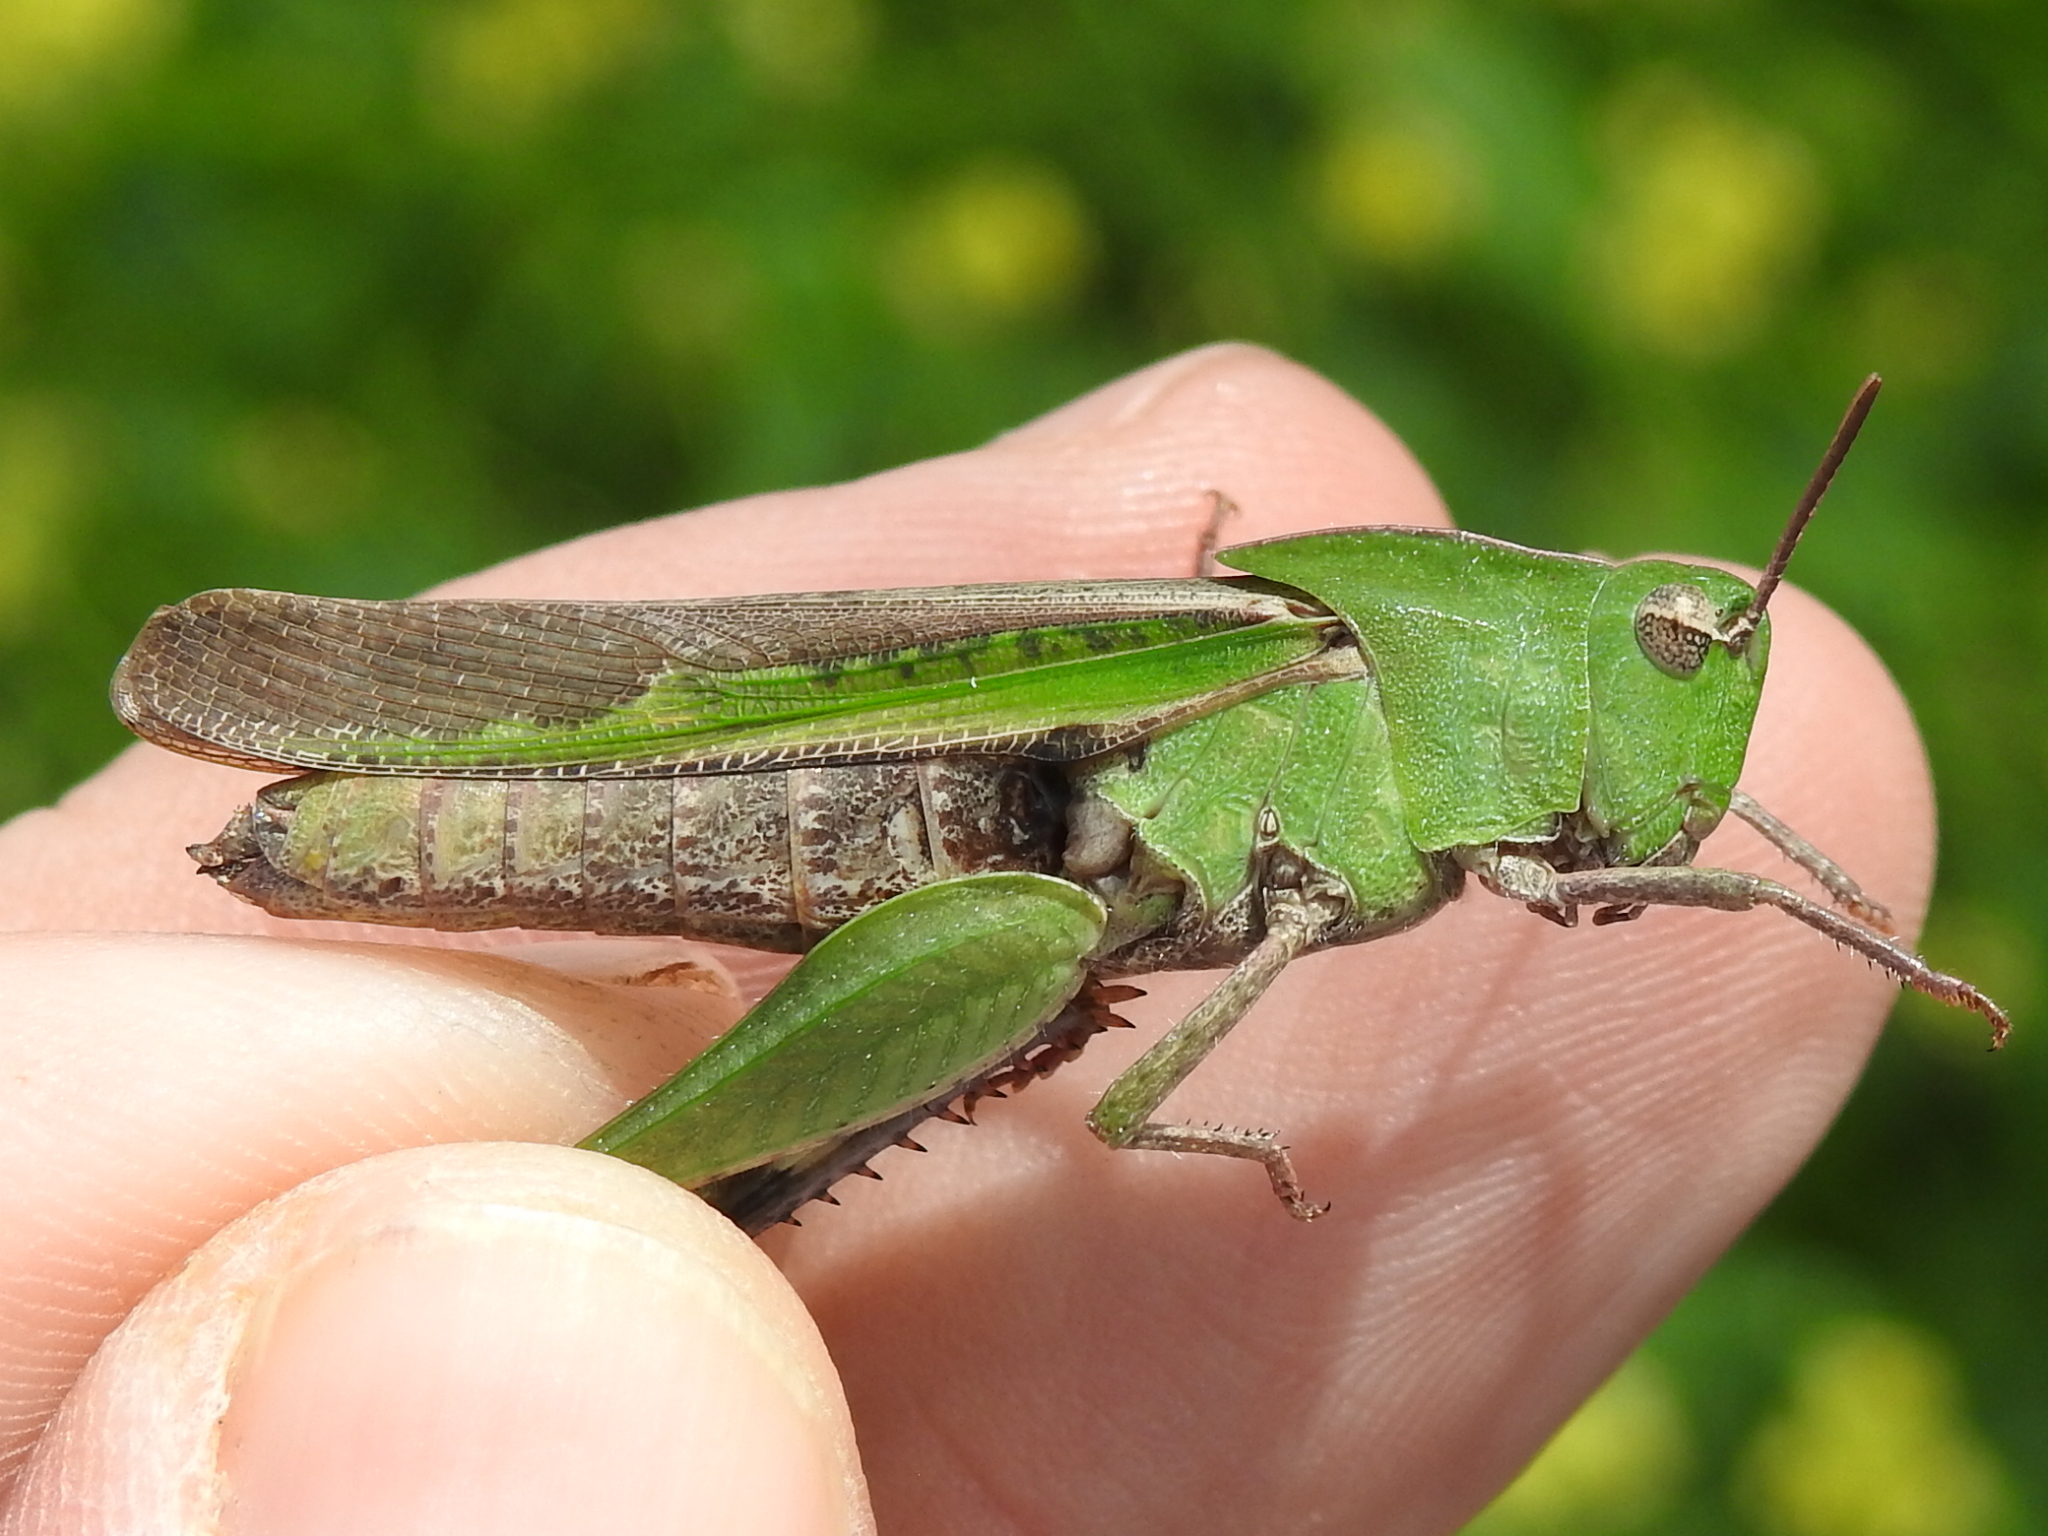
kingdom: Animalia
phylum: Arthropoda
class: Insecta
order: Orthoptera
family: Acrididae
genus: Chortophaga
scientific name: Chortophaga viridifasciata
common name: Green-striped grasshopper
